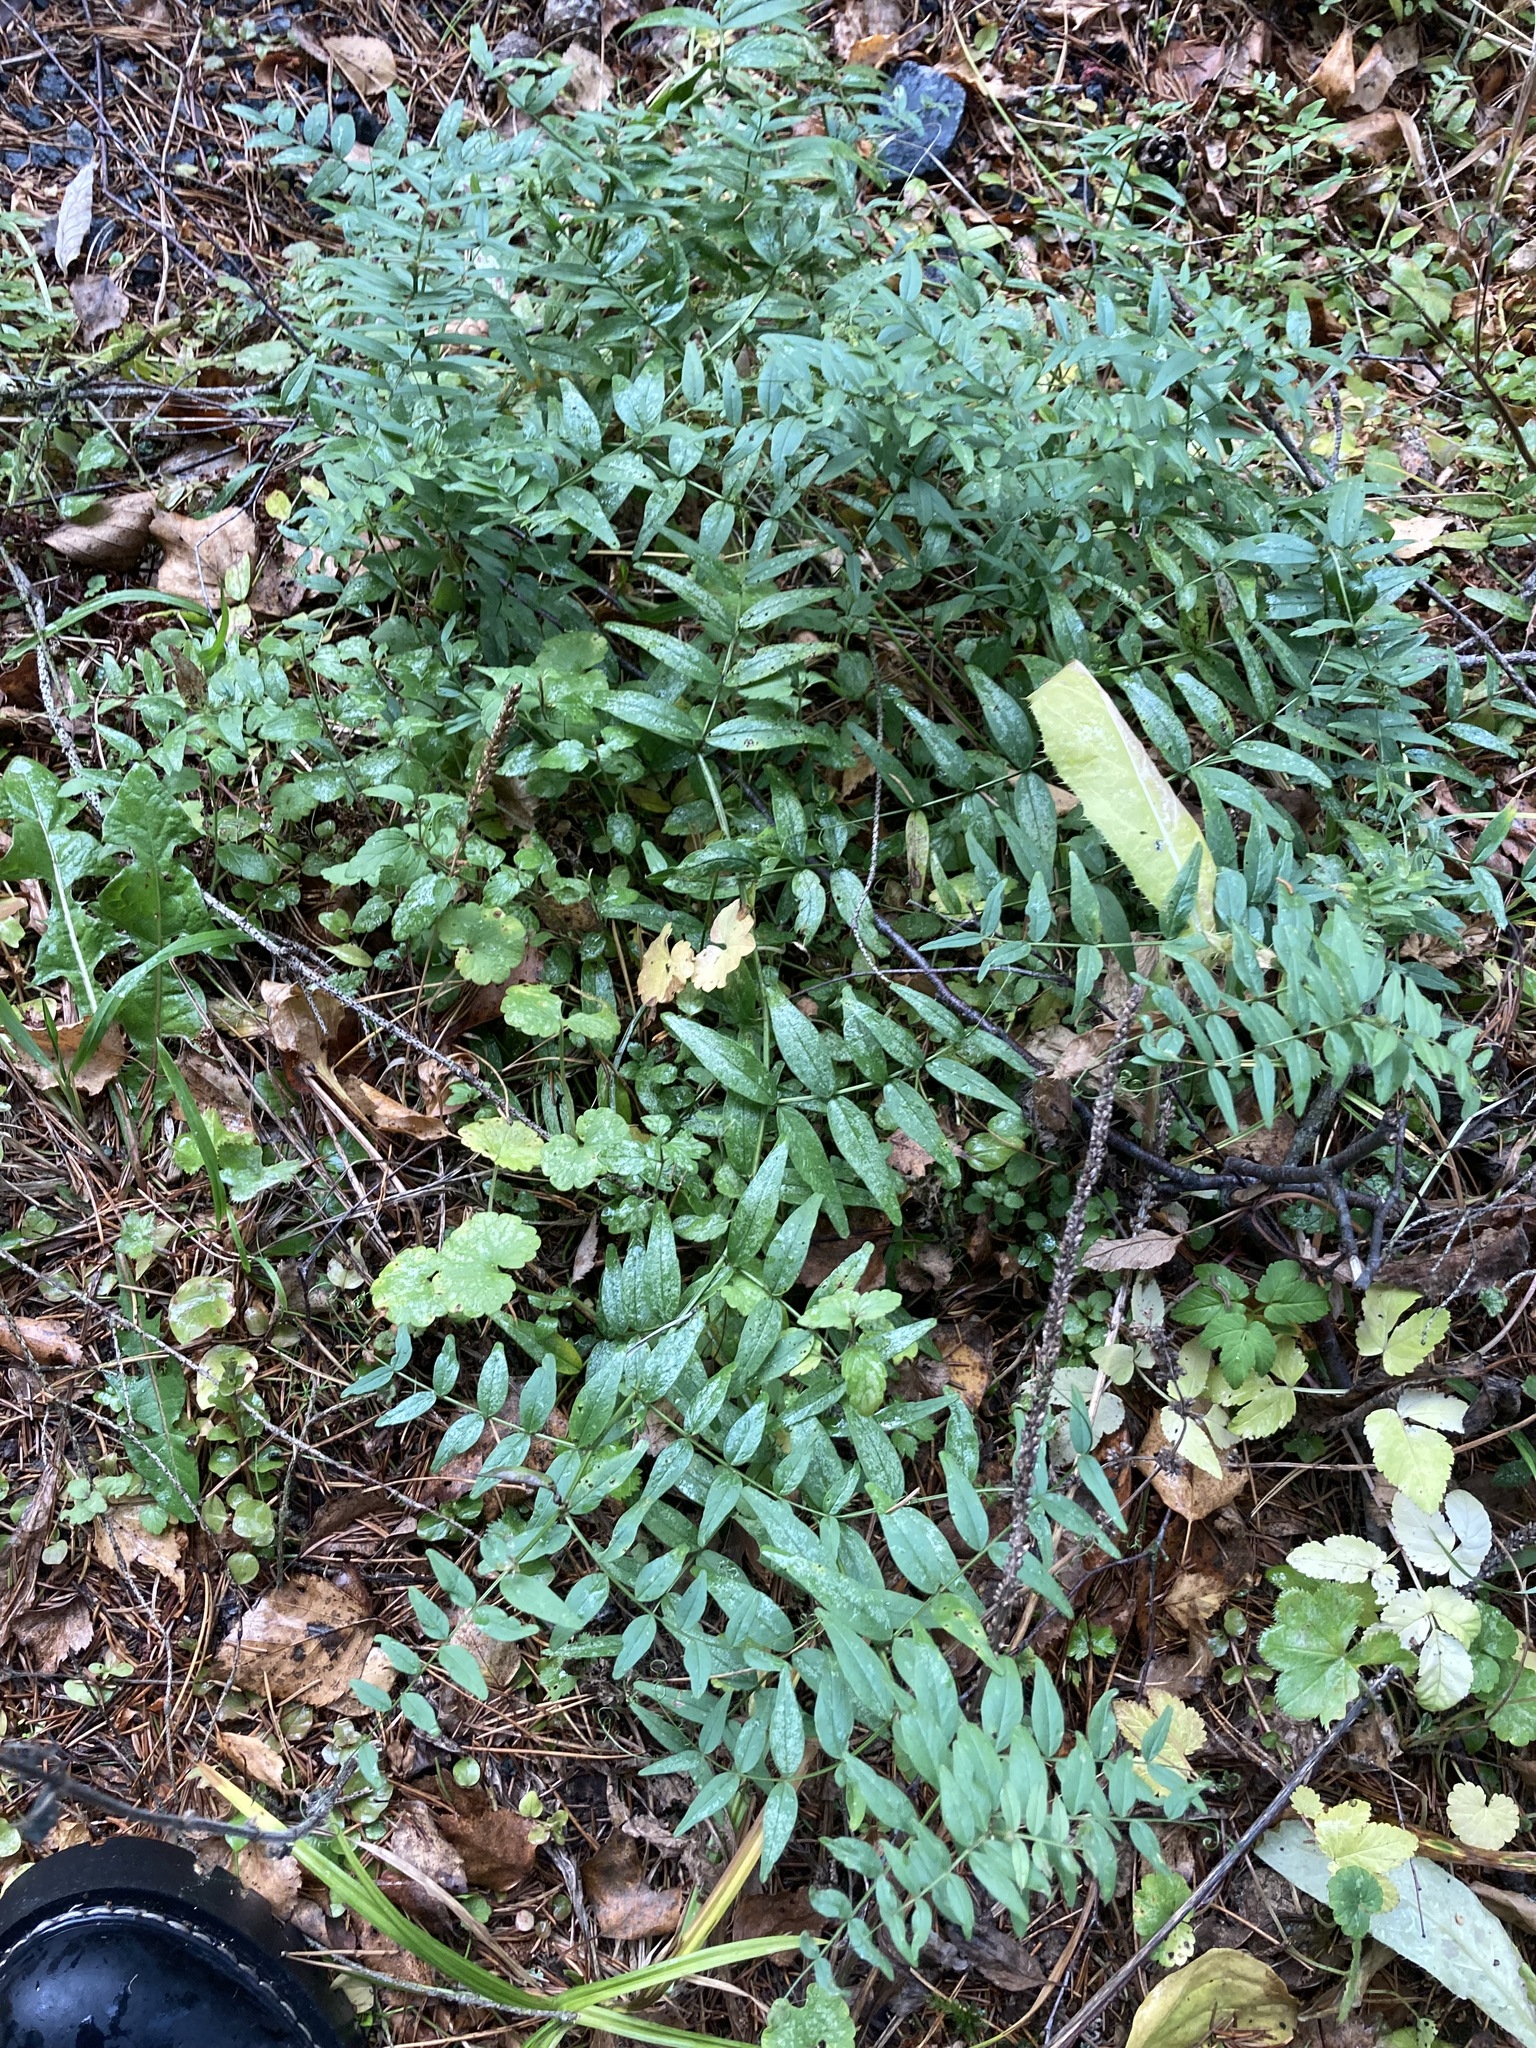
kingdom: Plantae
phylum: Tracheophyta
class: Magnoliopsida
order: Fabales
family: Fabaceae
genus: Vicia
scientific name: Vicia sepium
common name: Bush vetch
